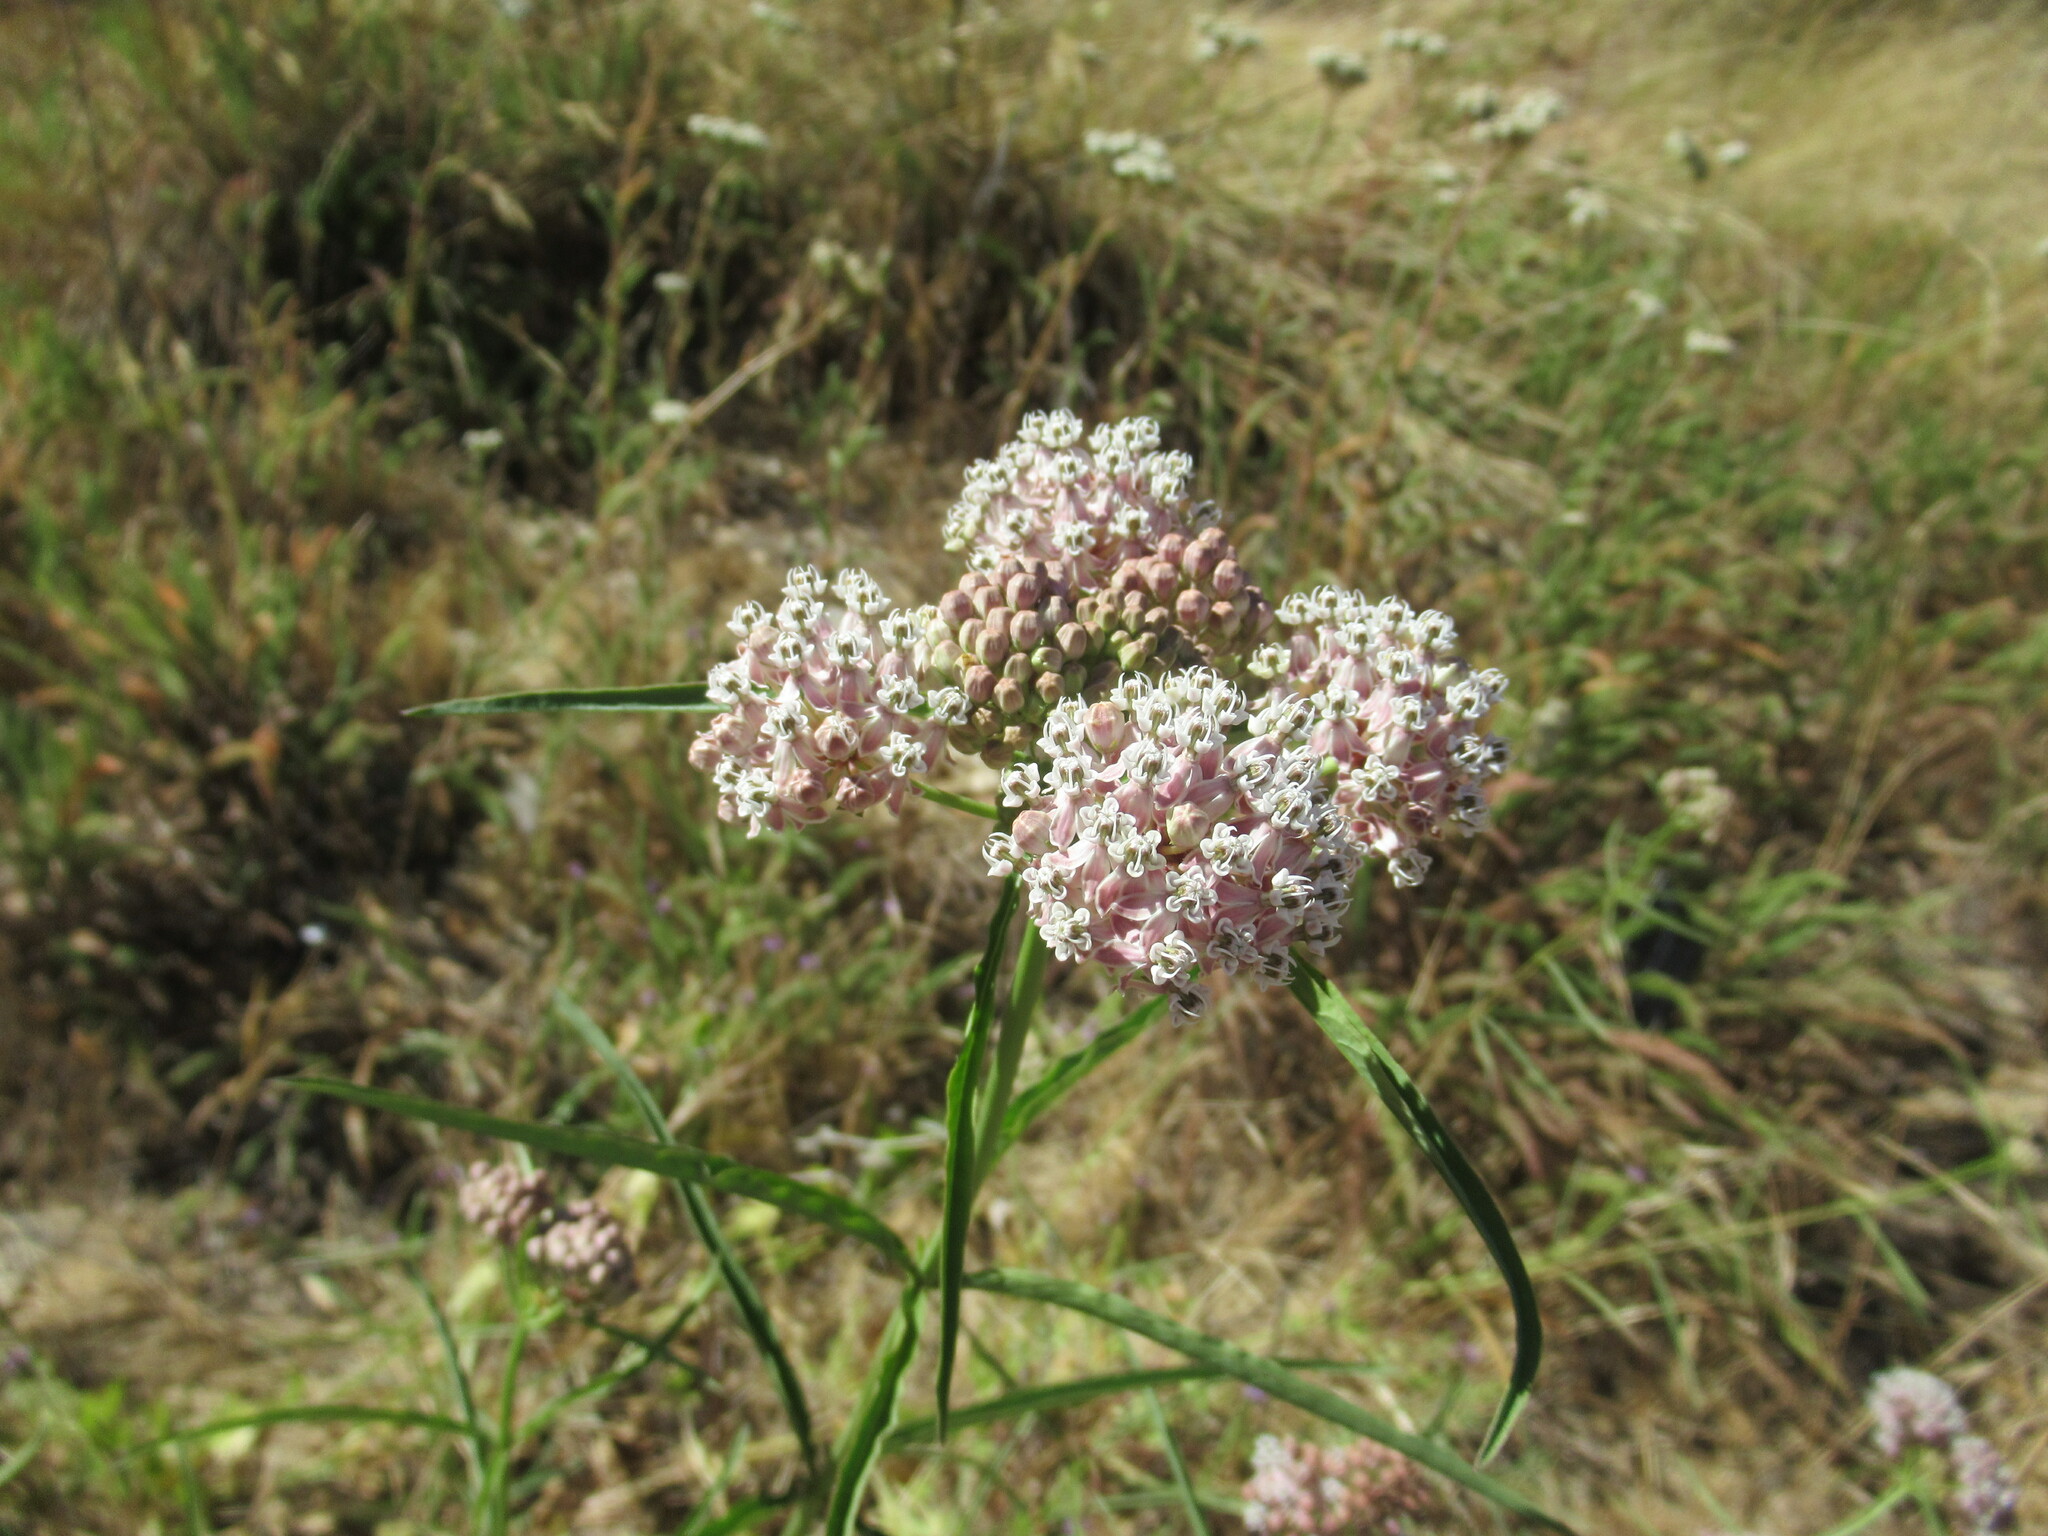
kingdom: Plantae
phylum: Tracheophyta
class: Magnoliopsida
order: Gentianales
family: Apocynaceae
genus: Asclepias
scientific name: Asclepias fascicularis
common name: Mexican milkweed
